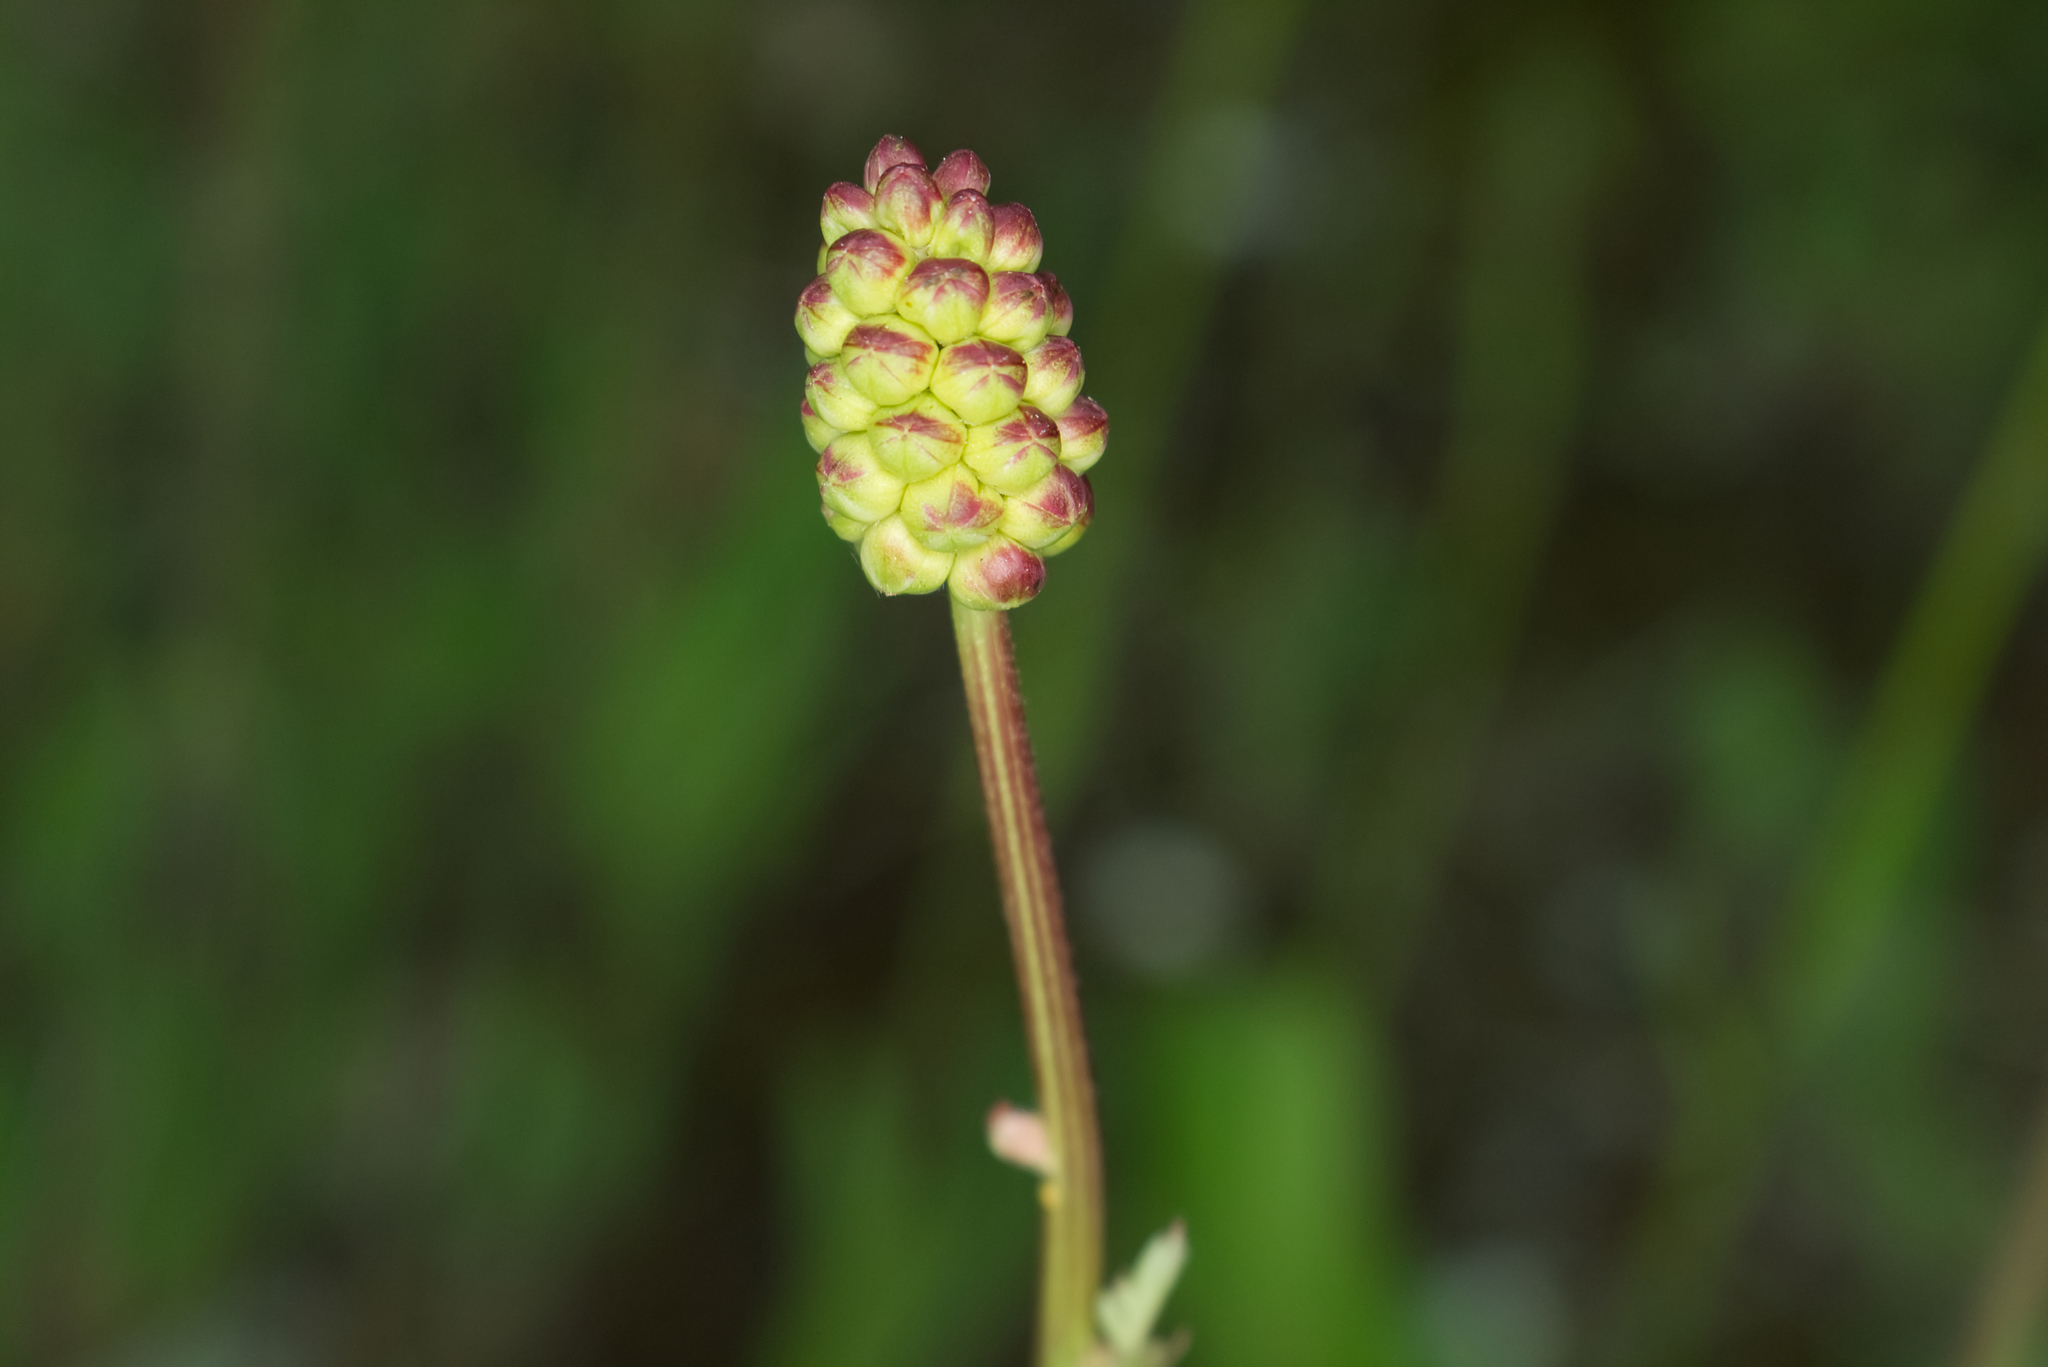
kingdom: Plantae
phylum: Tracheophyta
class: Magnoliopsida
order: Rosales
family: Rosaceae
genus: Poterium
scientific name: Poterium sanguisorba
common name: Salad burnet
